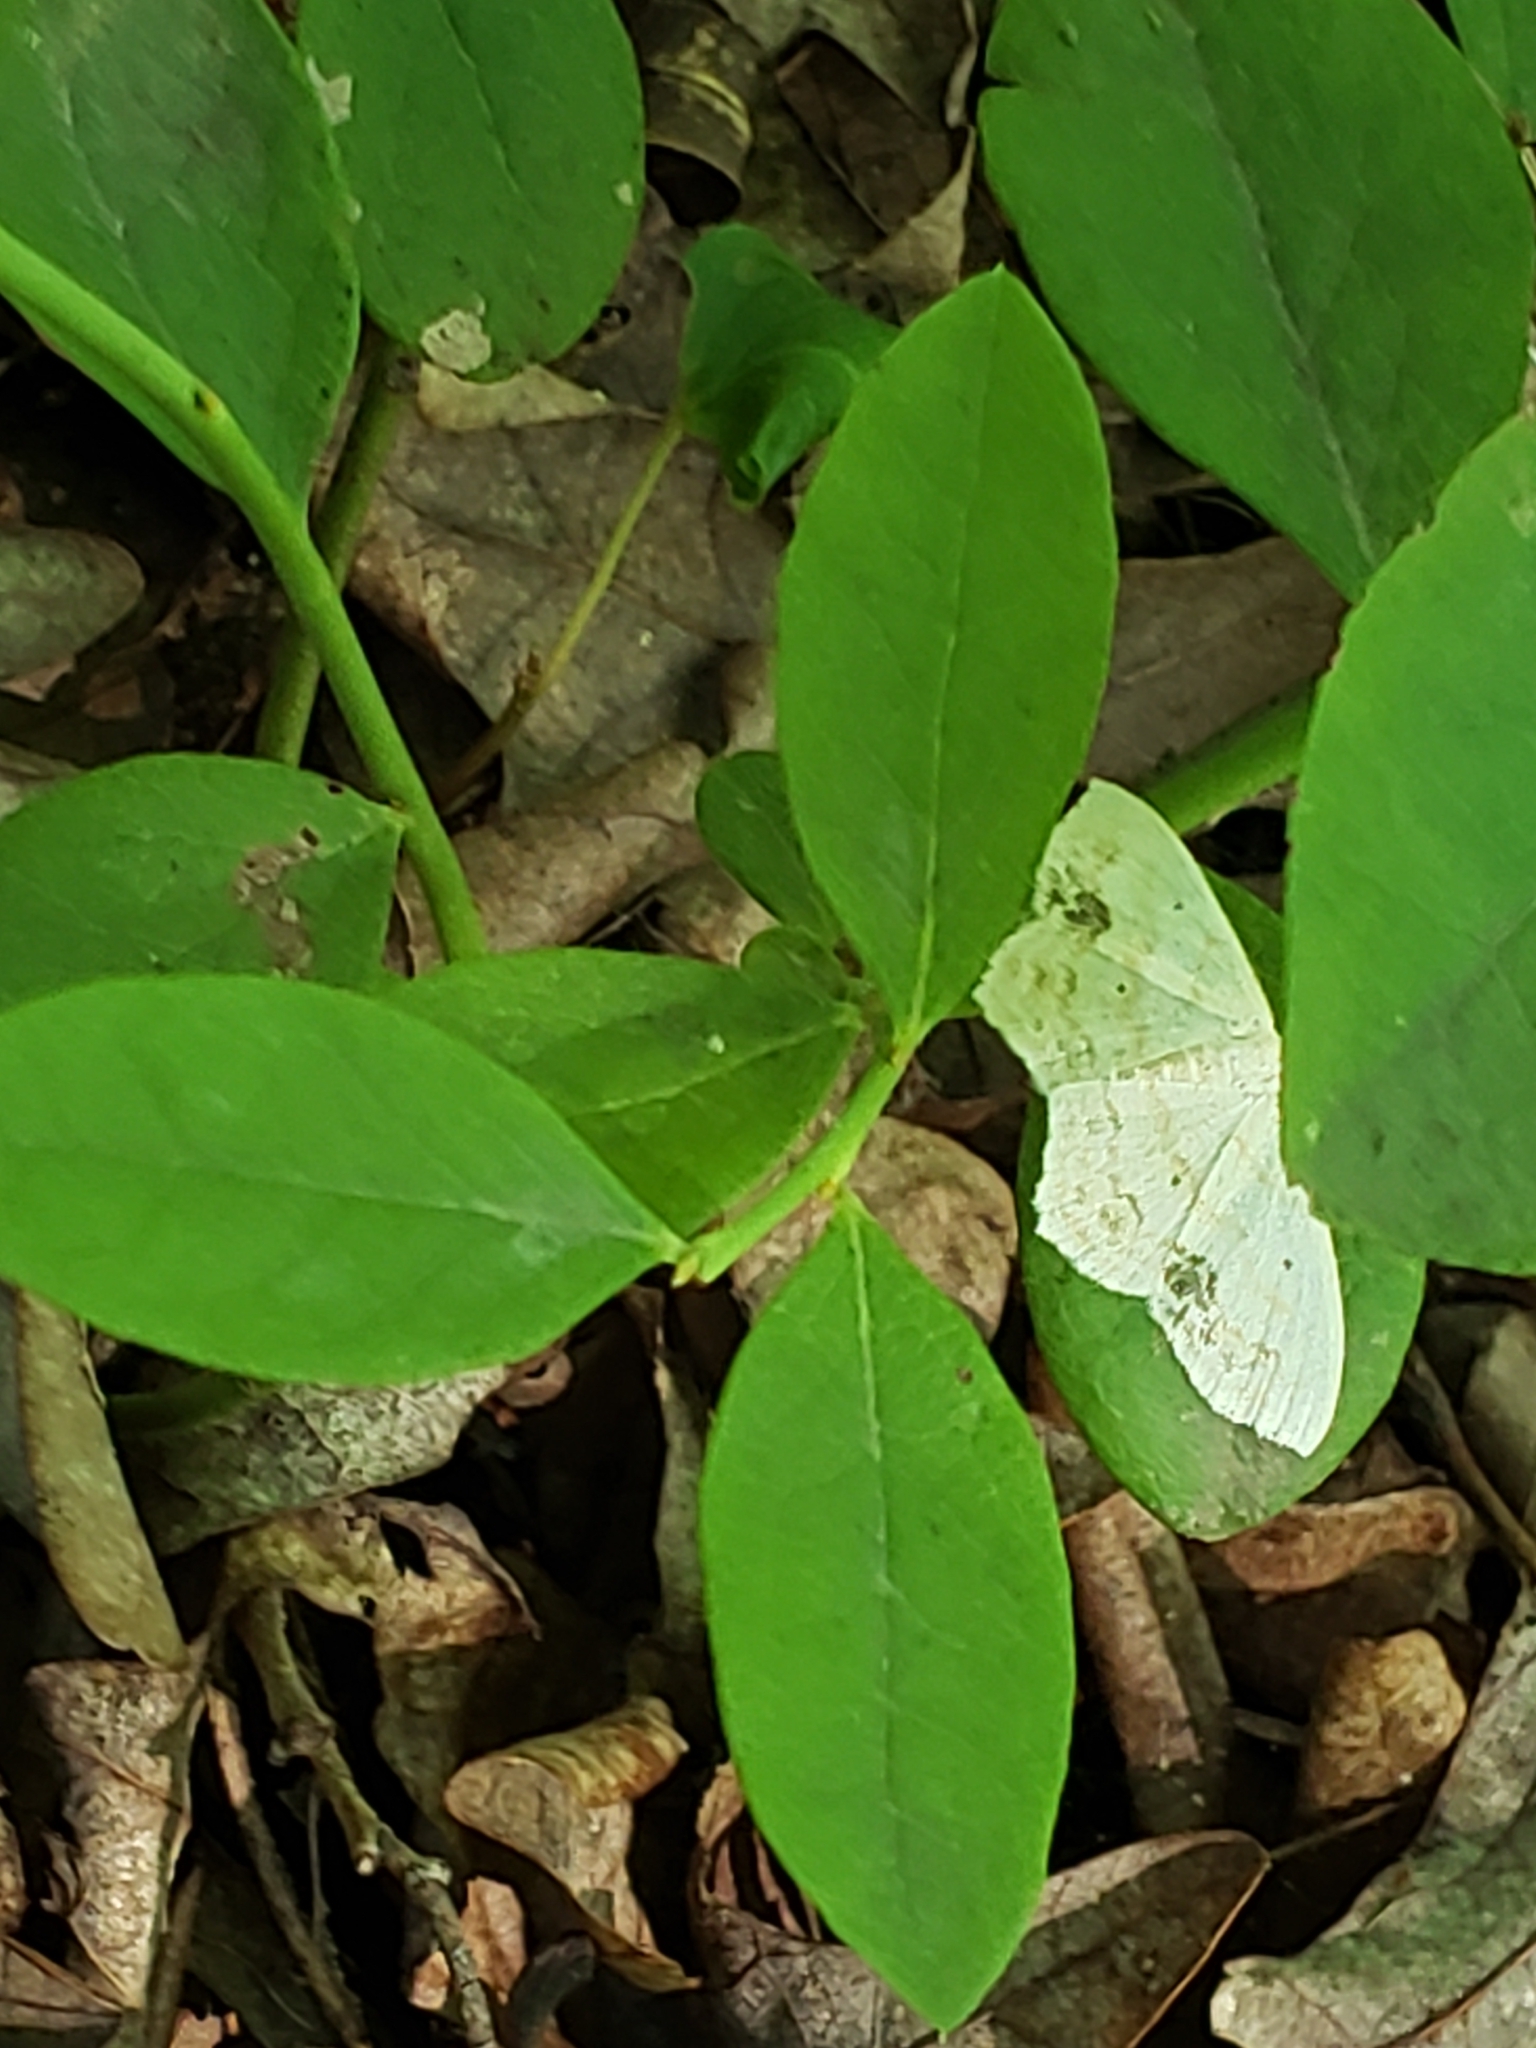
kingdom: Animalia
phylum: Arthropoda
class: Insecta
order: Lepidoptera
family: Geometridae
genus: Scopula
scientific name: Scopula limboundata
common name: Large lace border
